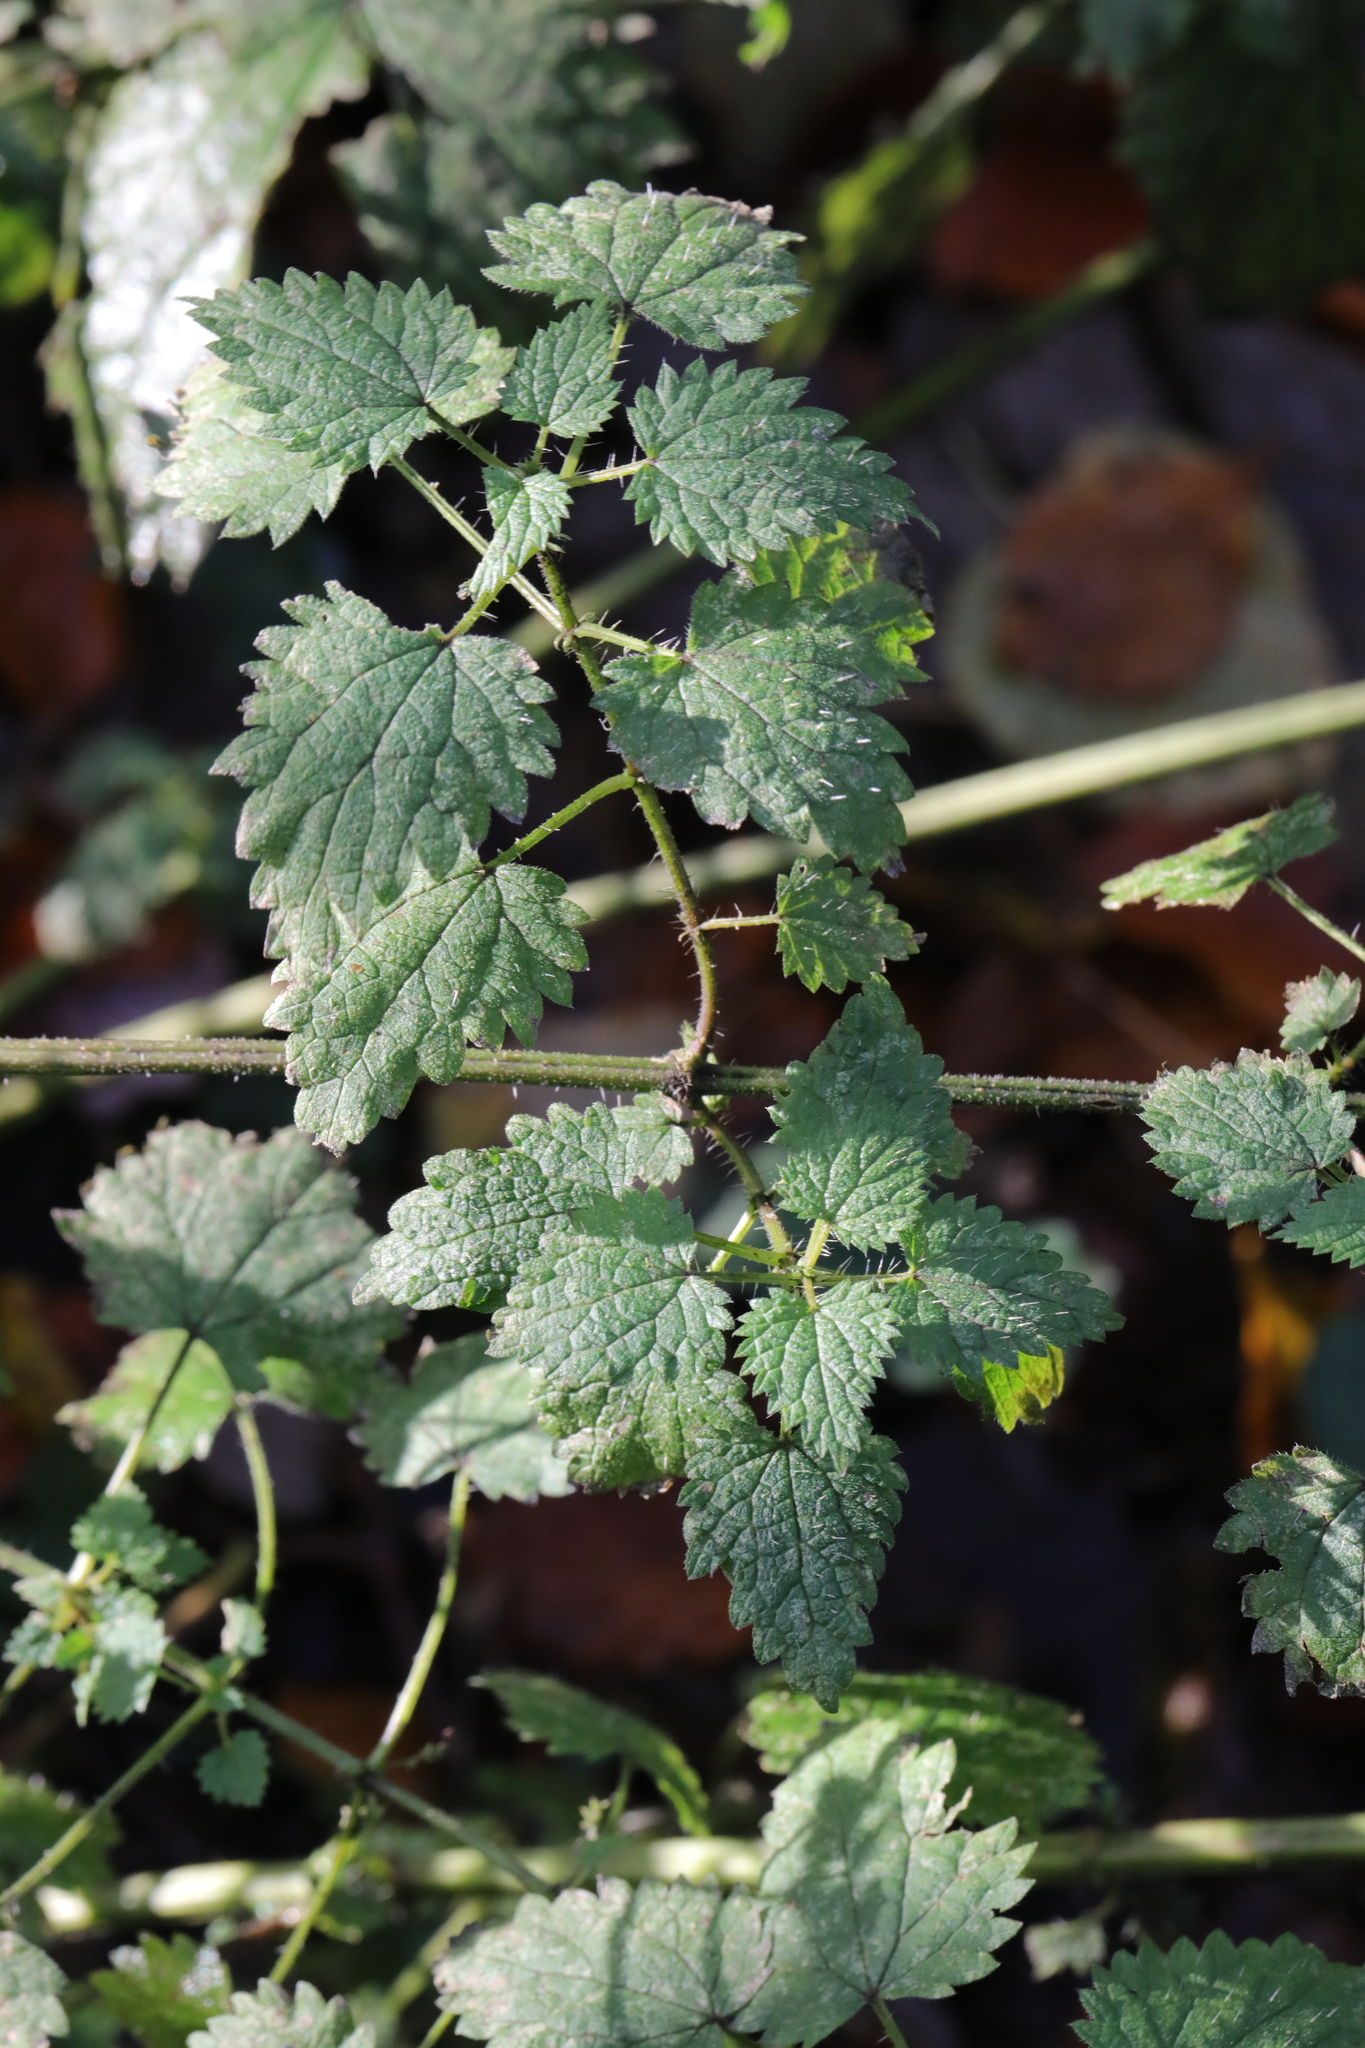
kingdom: Plantae
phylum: Tracheophyta
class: Magnoliopsida
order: Rosales
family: Urticaceae
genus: Urtica
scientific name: Urtica dioica
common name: Common nettle
